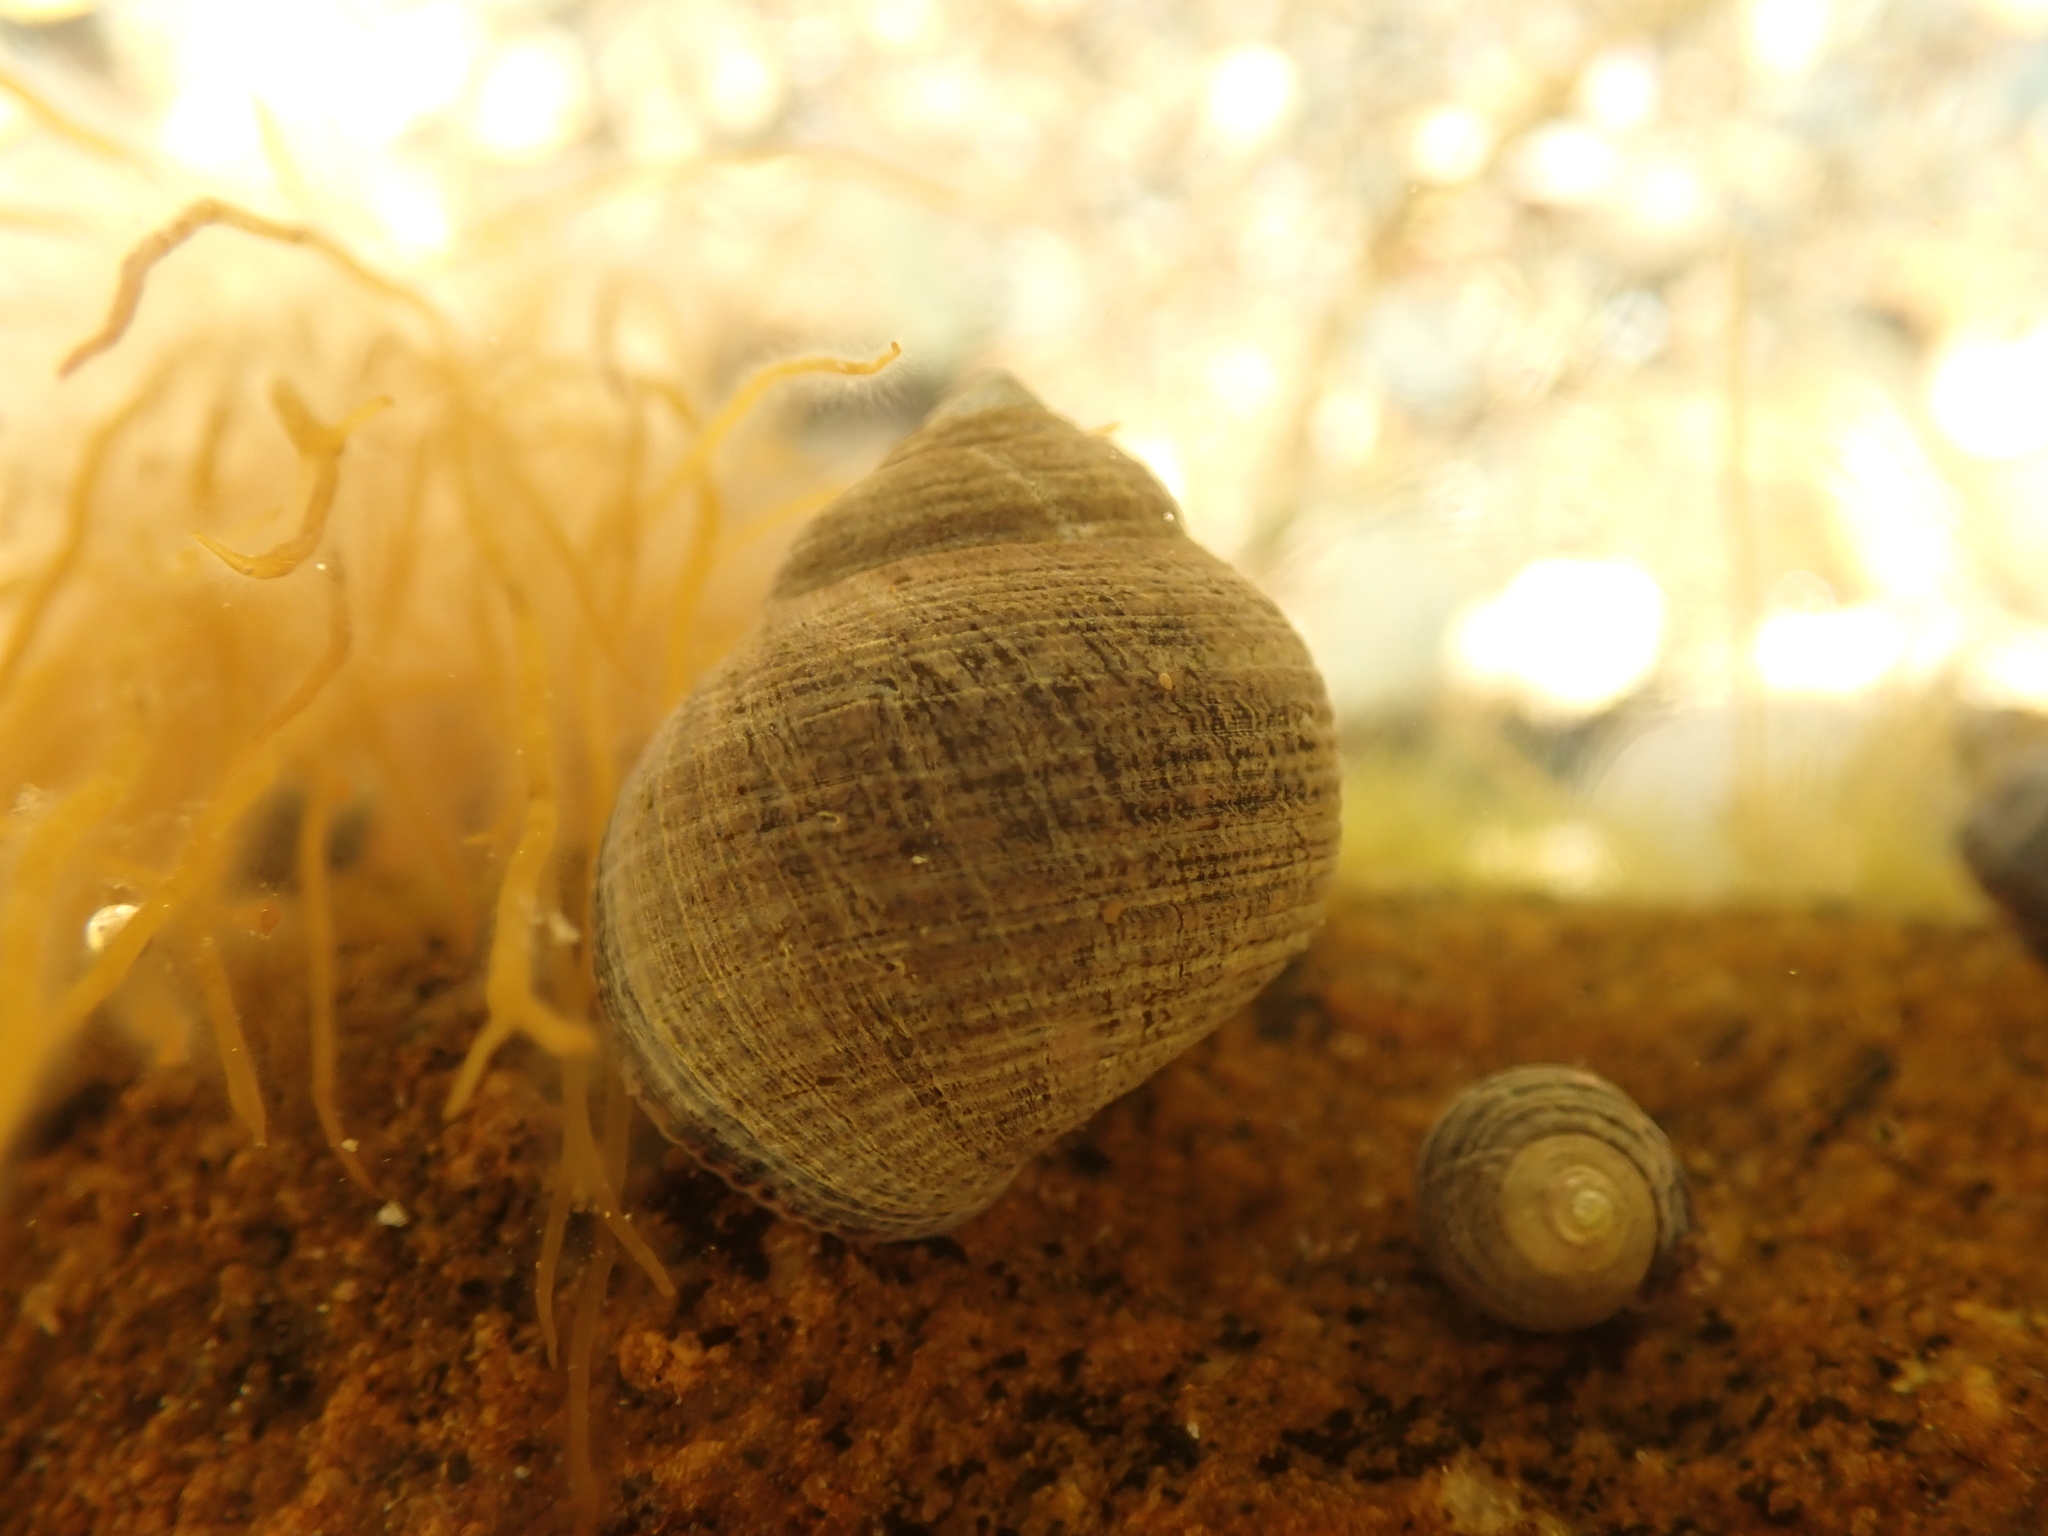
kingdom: Animalia
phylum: Mollusca
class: Gastropoda
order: Littorinimorpha
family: Littorinidae
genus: Littorina
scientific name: Littorina littorea
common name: Common periwinkle
